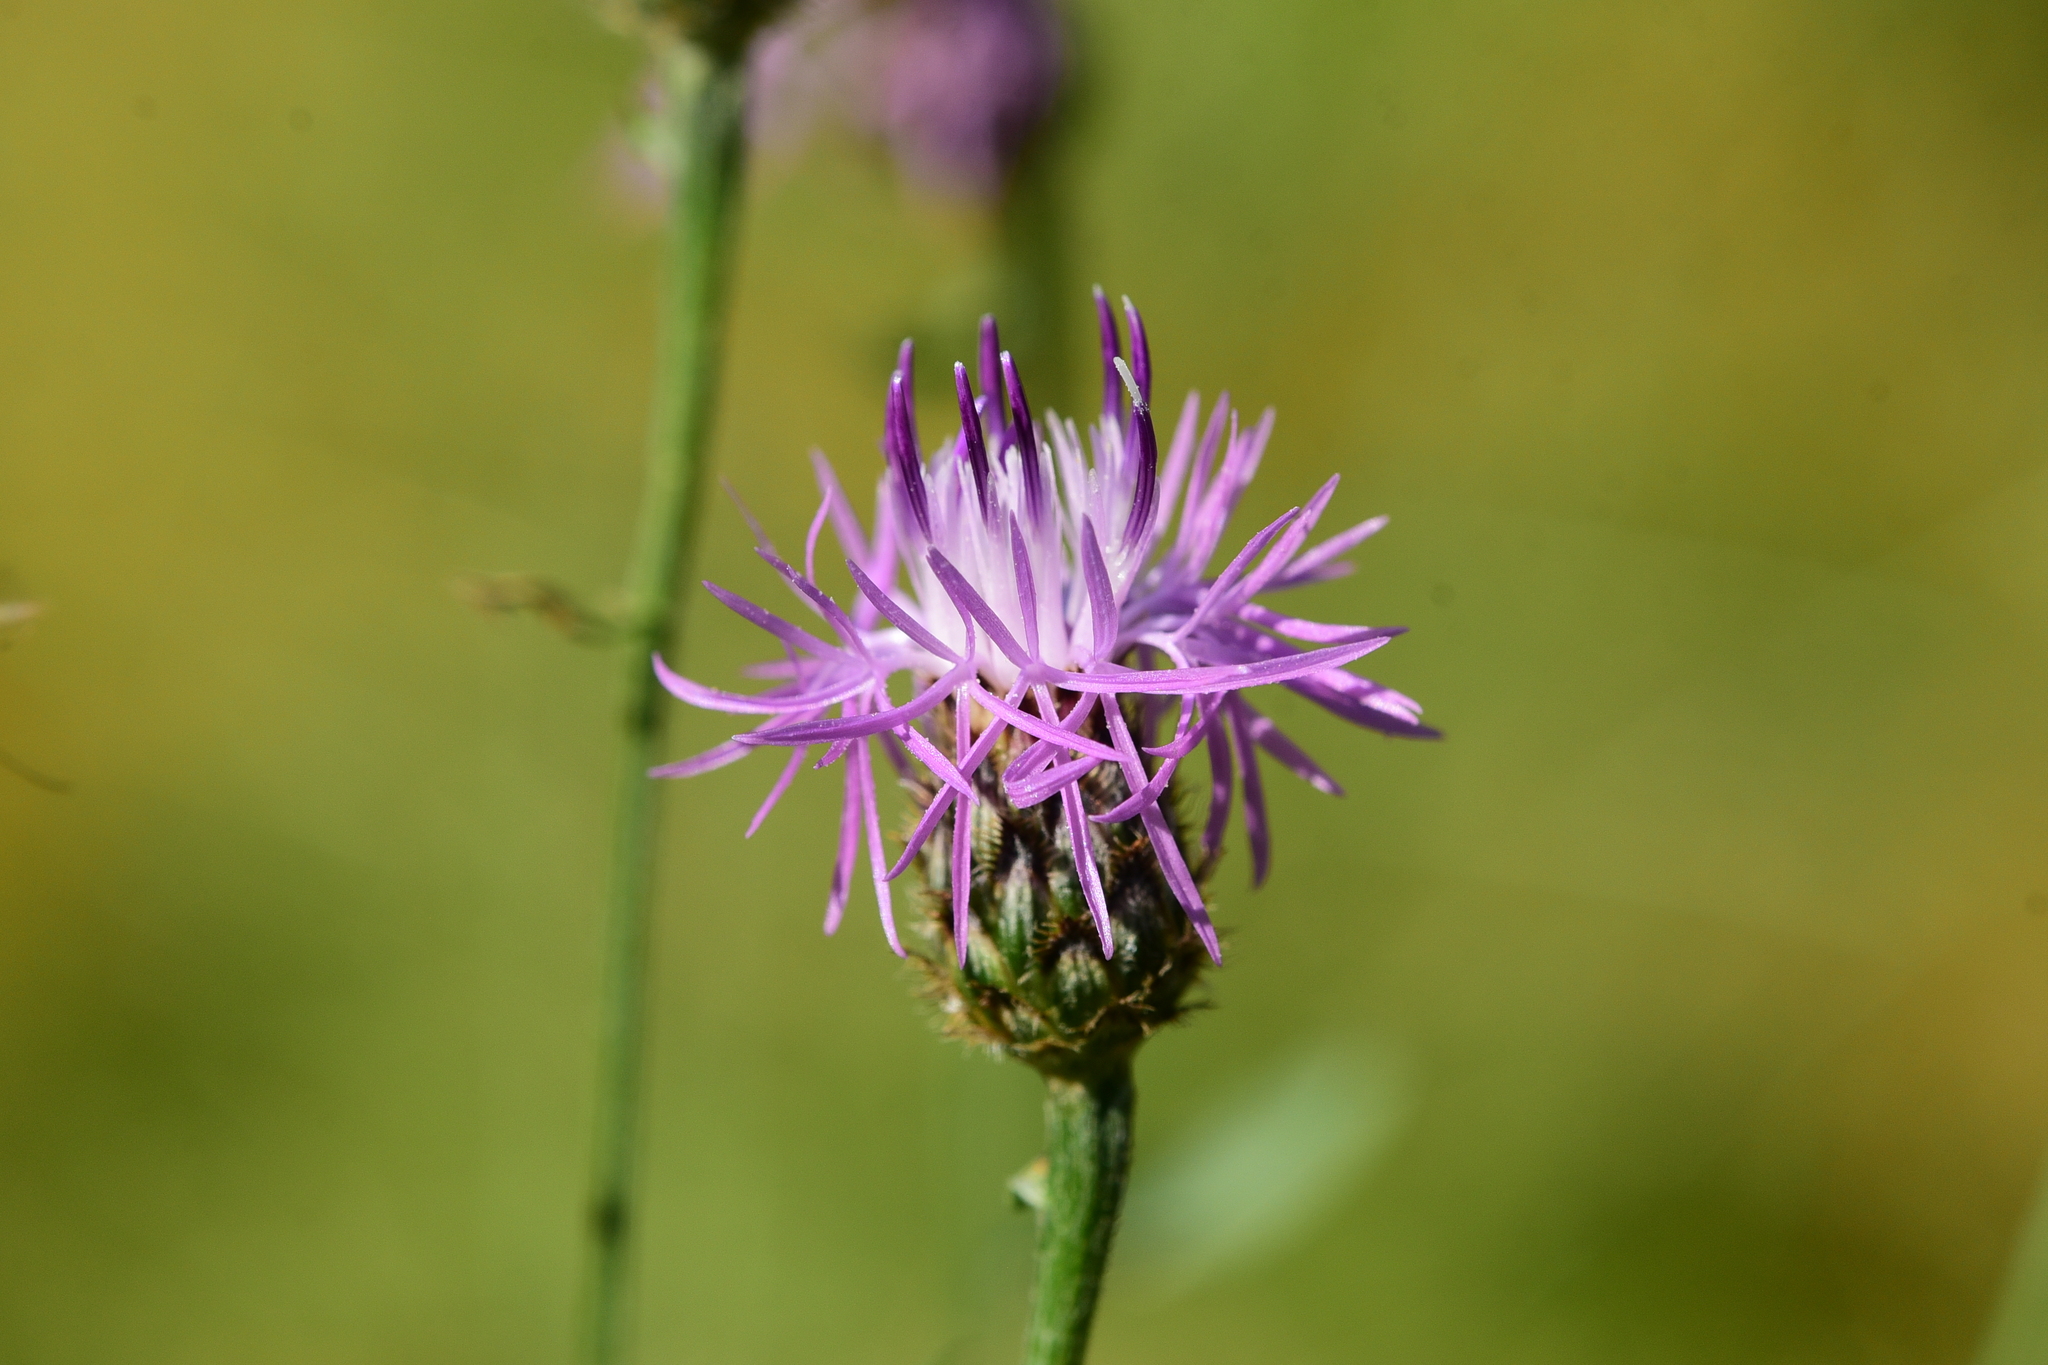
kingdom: Plantae
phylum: Tracheophyta
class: Magnoliopsida
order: Asterales
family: Asteraceae
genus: Centaurea
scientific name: Centaurea stoebe
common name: Spotted knapweed
